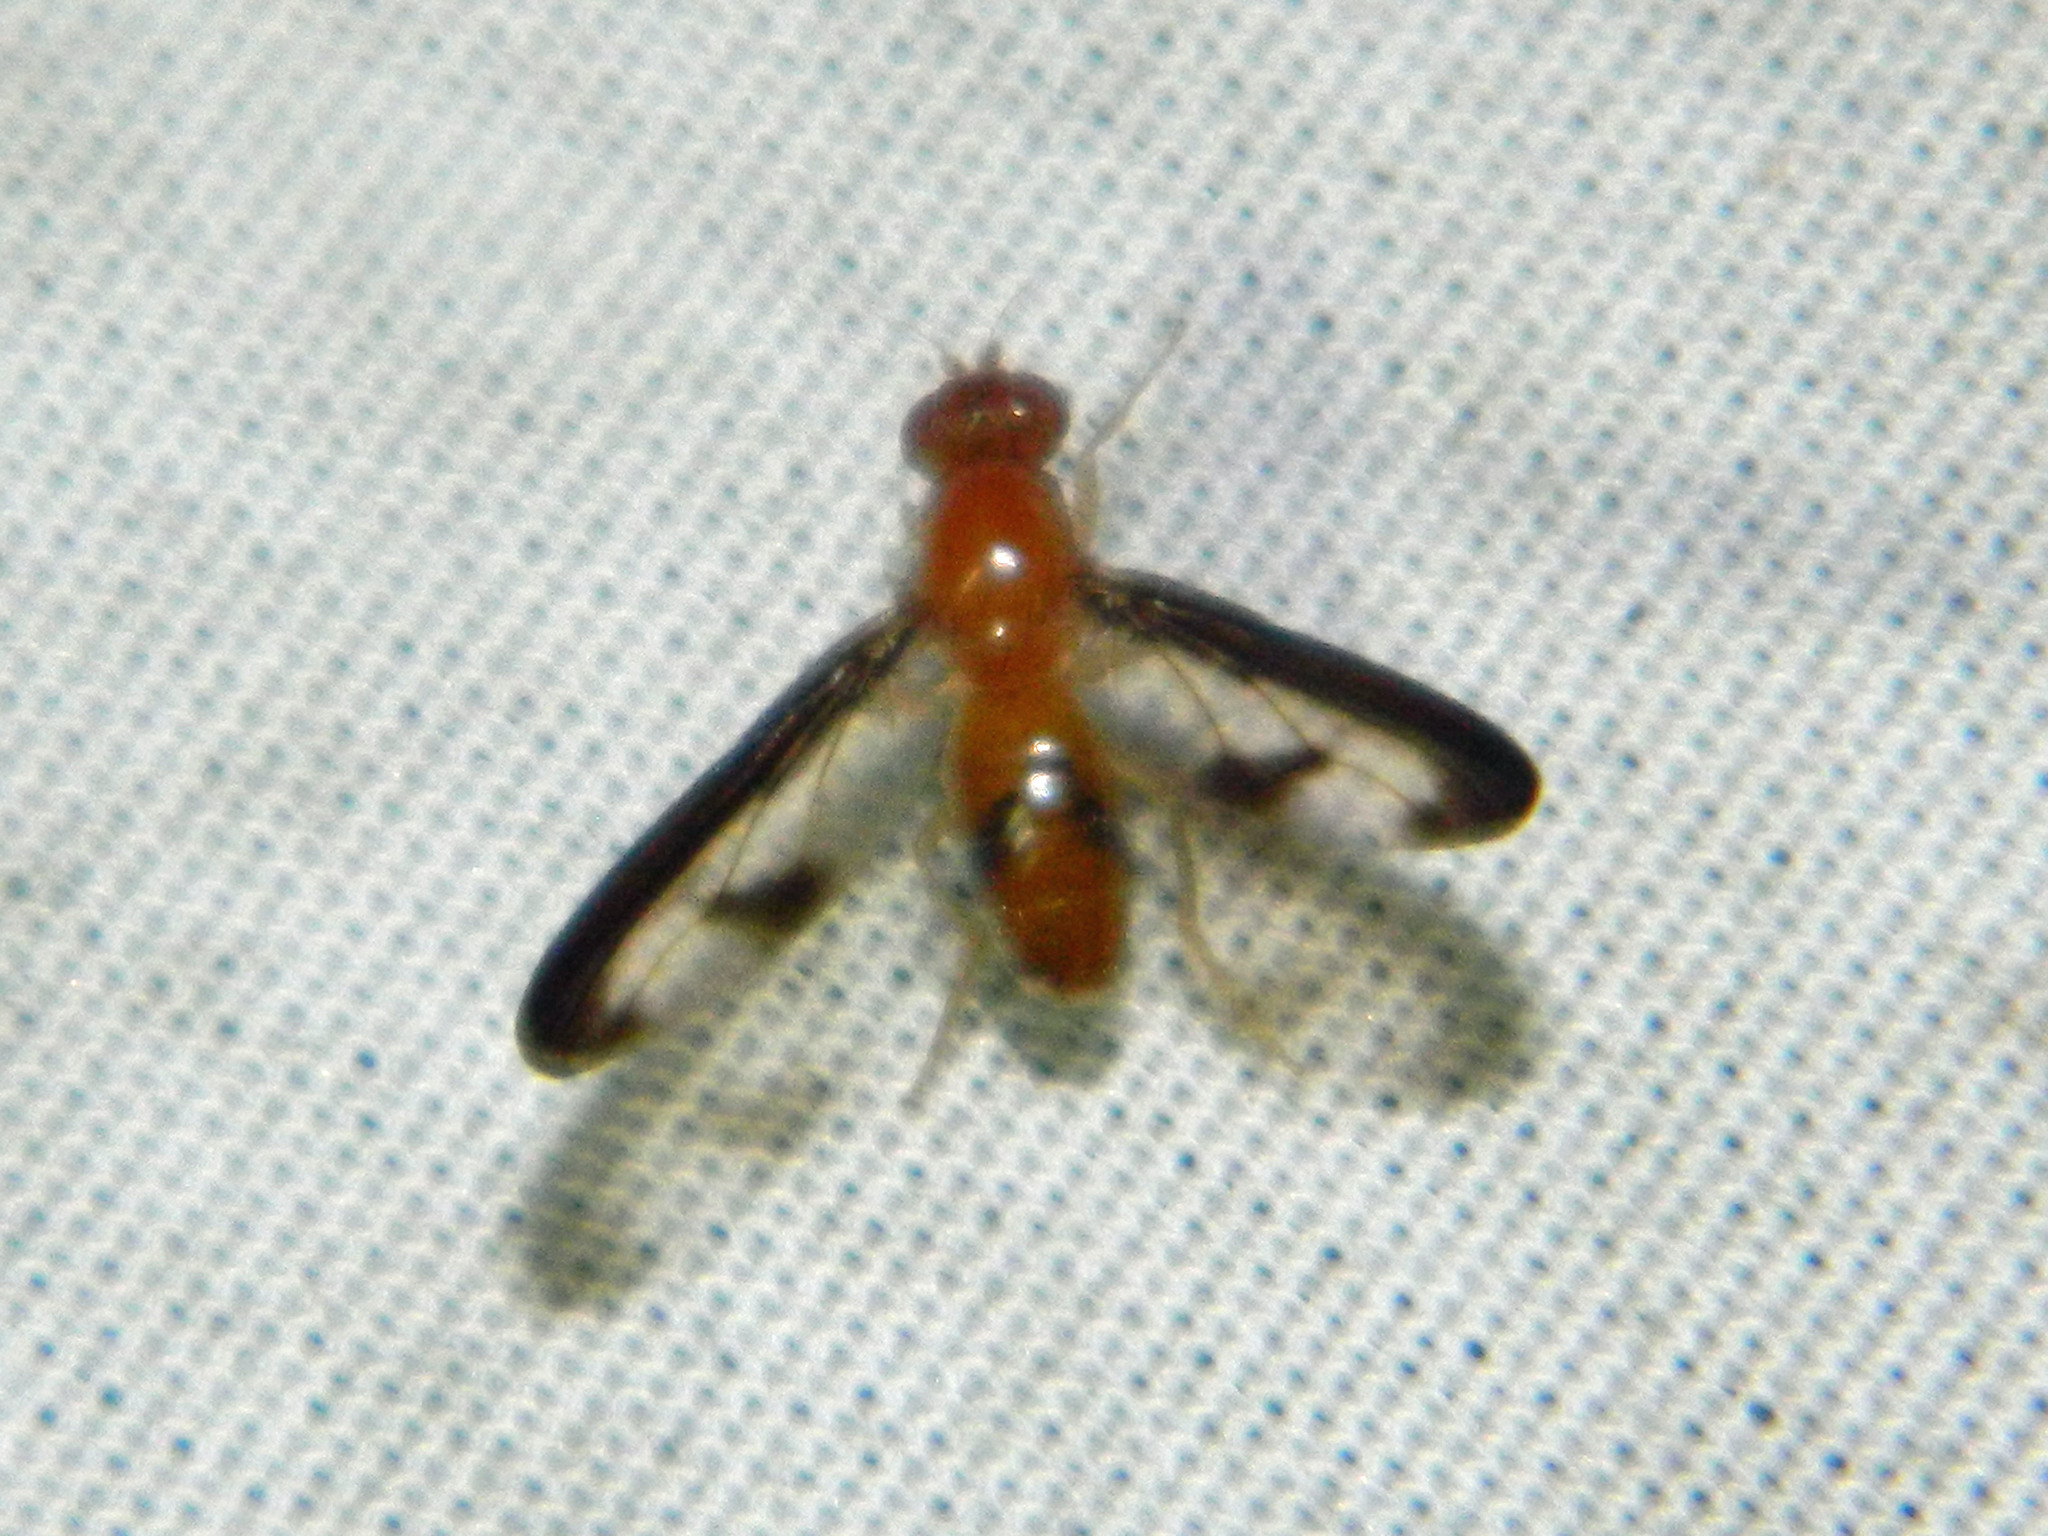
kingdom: Animalia
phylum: Arthropoda
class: Insecta
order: Diptera
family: Pallopteridae
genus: Toxonevra
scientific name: Toxonevra superba
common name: Antlered flutter fly
